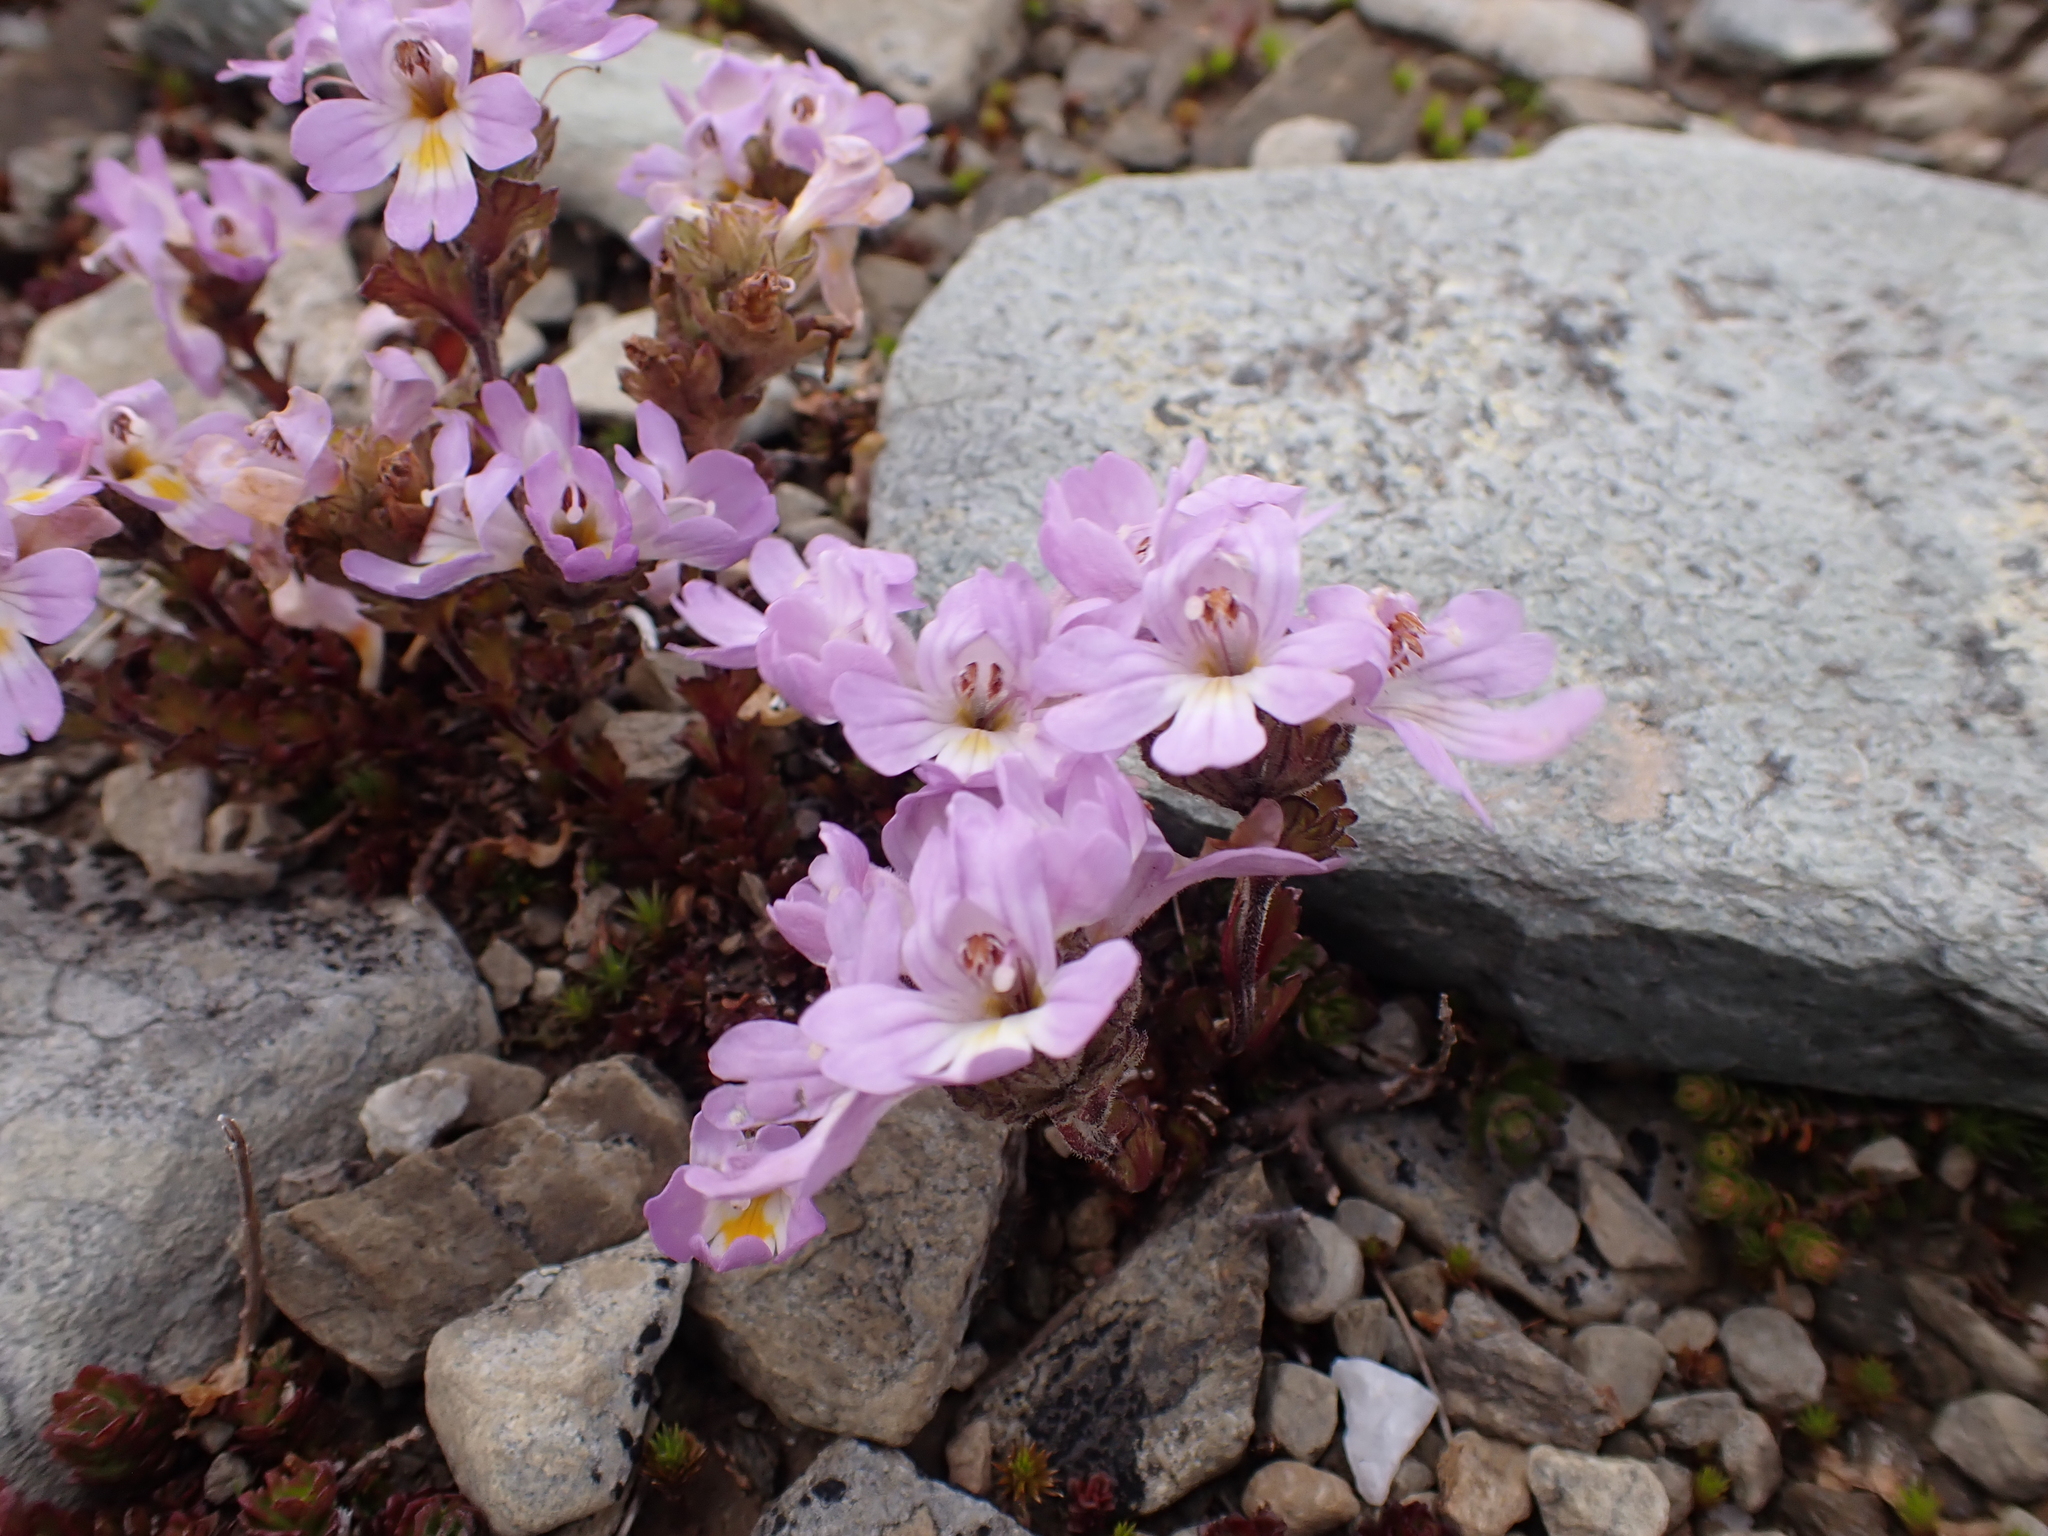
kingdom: Plantae
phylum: Tracheophyta
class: Magnoliopsida
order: Lamiales
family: Orobanchaceae
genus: Euphrasia
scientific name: Euphrasia collina
